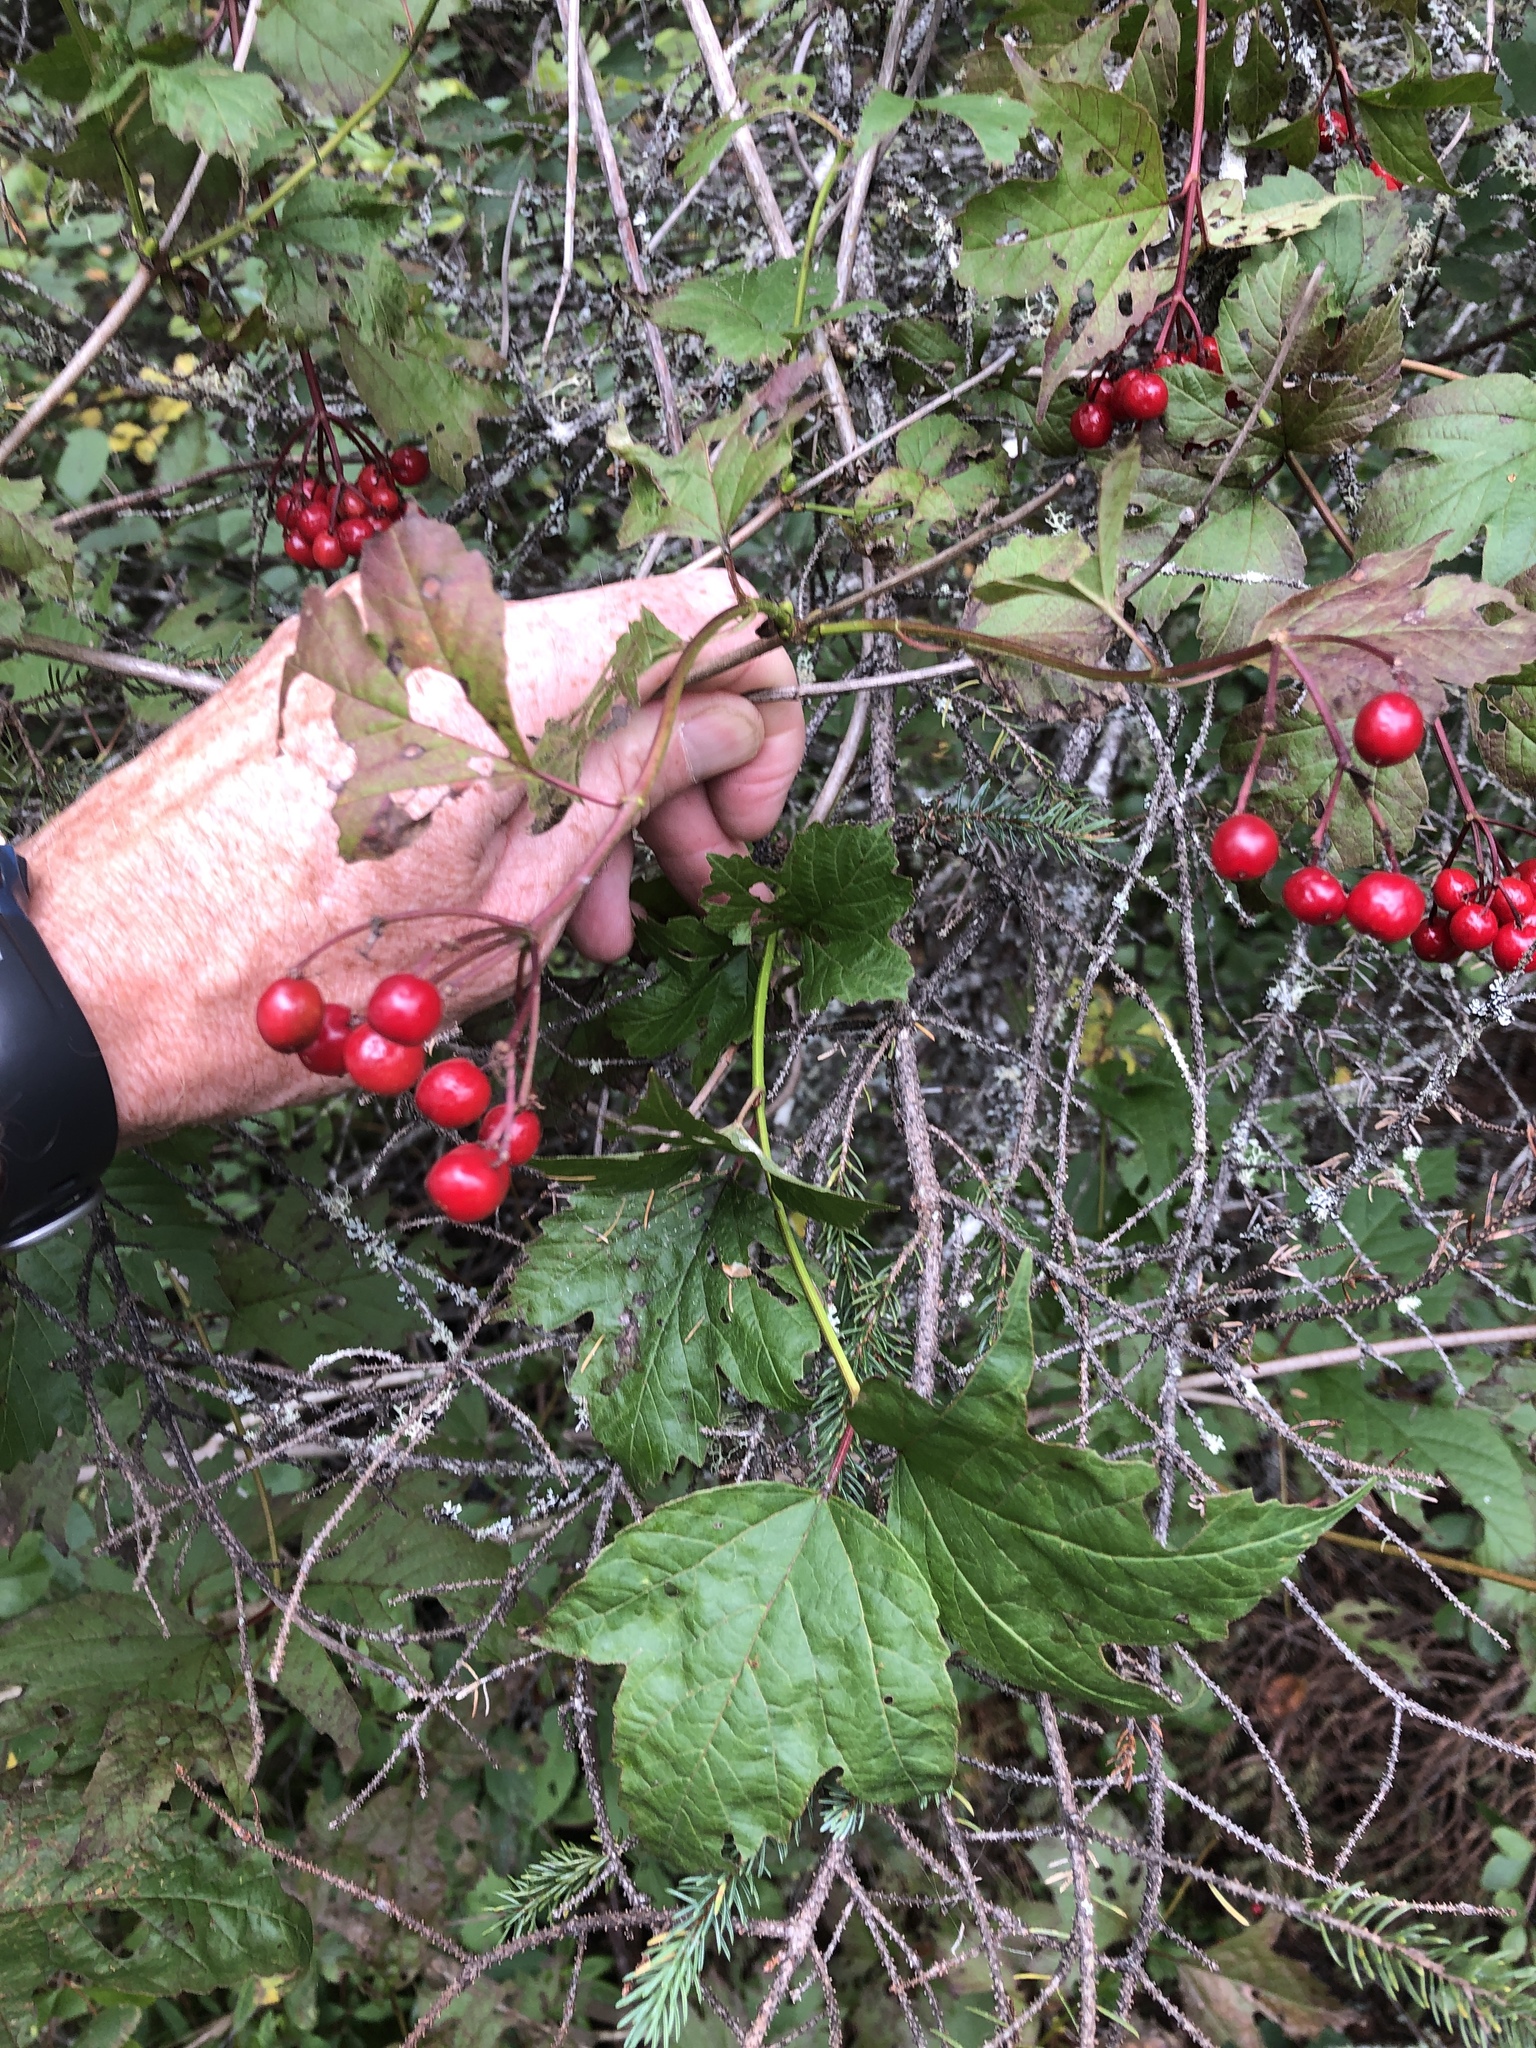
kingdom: Plantae
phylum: Tracheophyta
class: Magnoliopsida
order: Dipsacales
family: Viburnaceae
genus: Viburnum
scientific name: Viburnum opulus
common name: Guelder-rose
